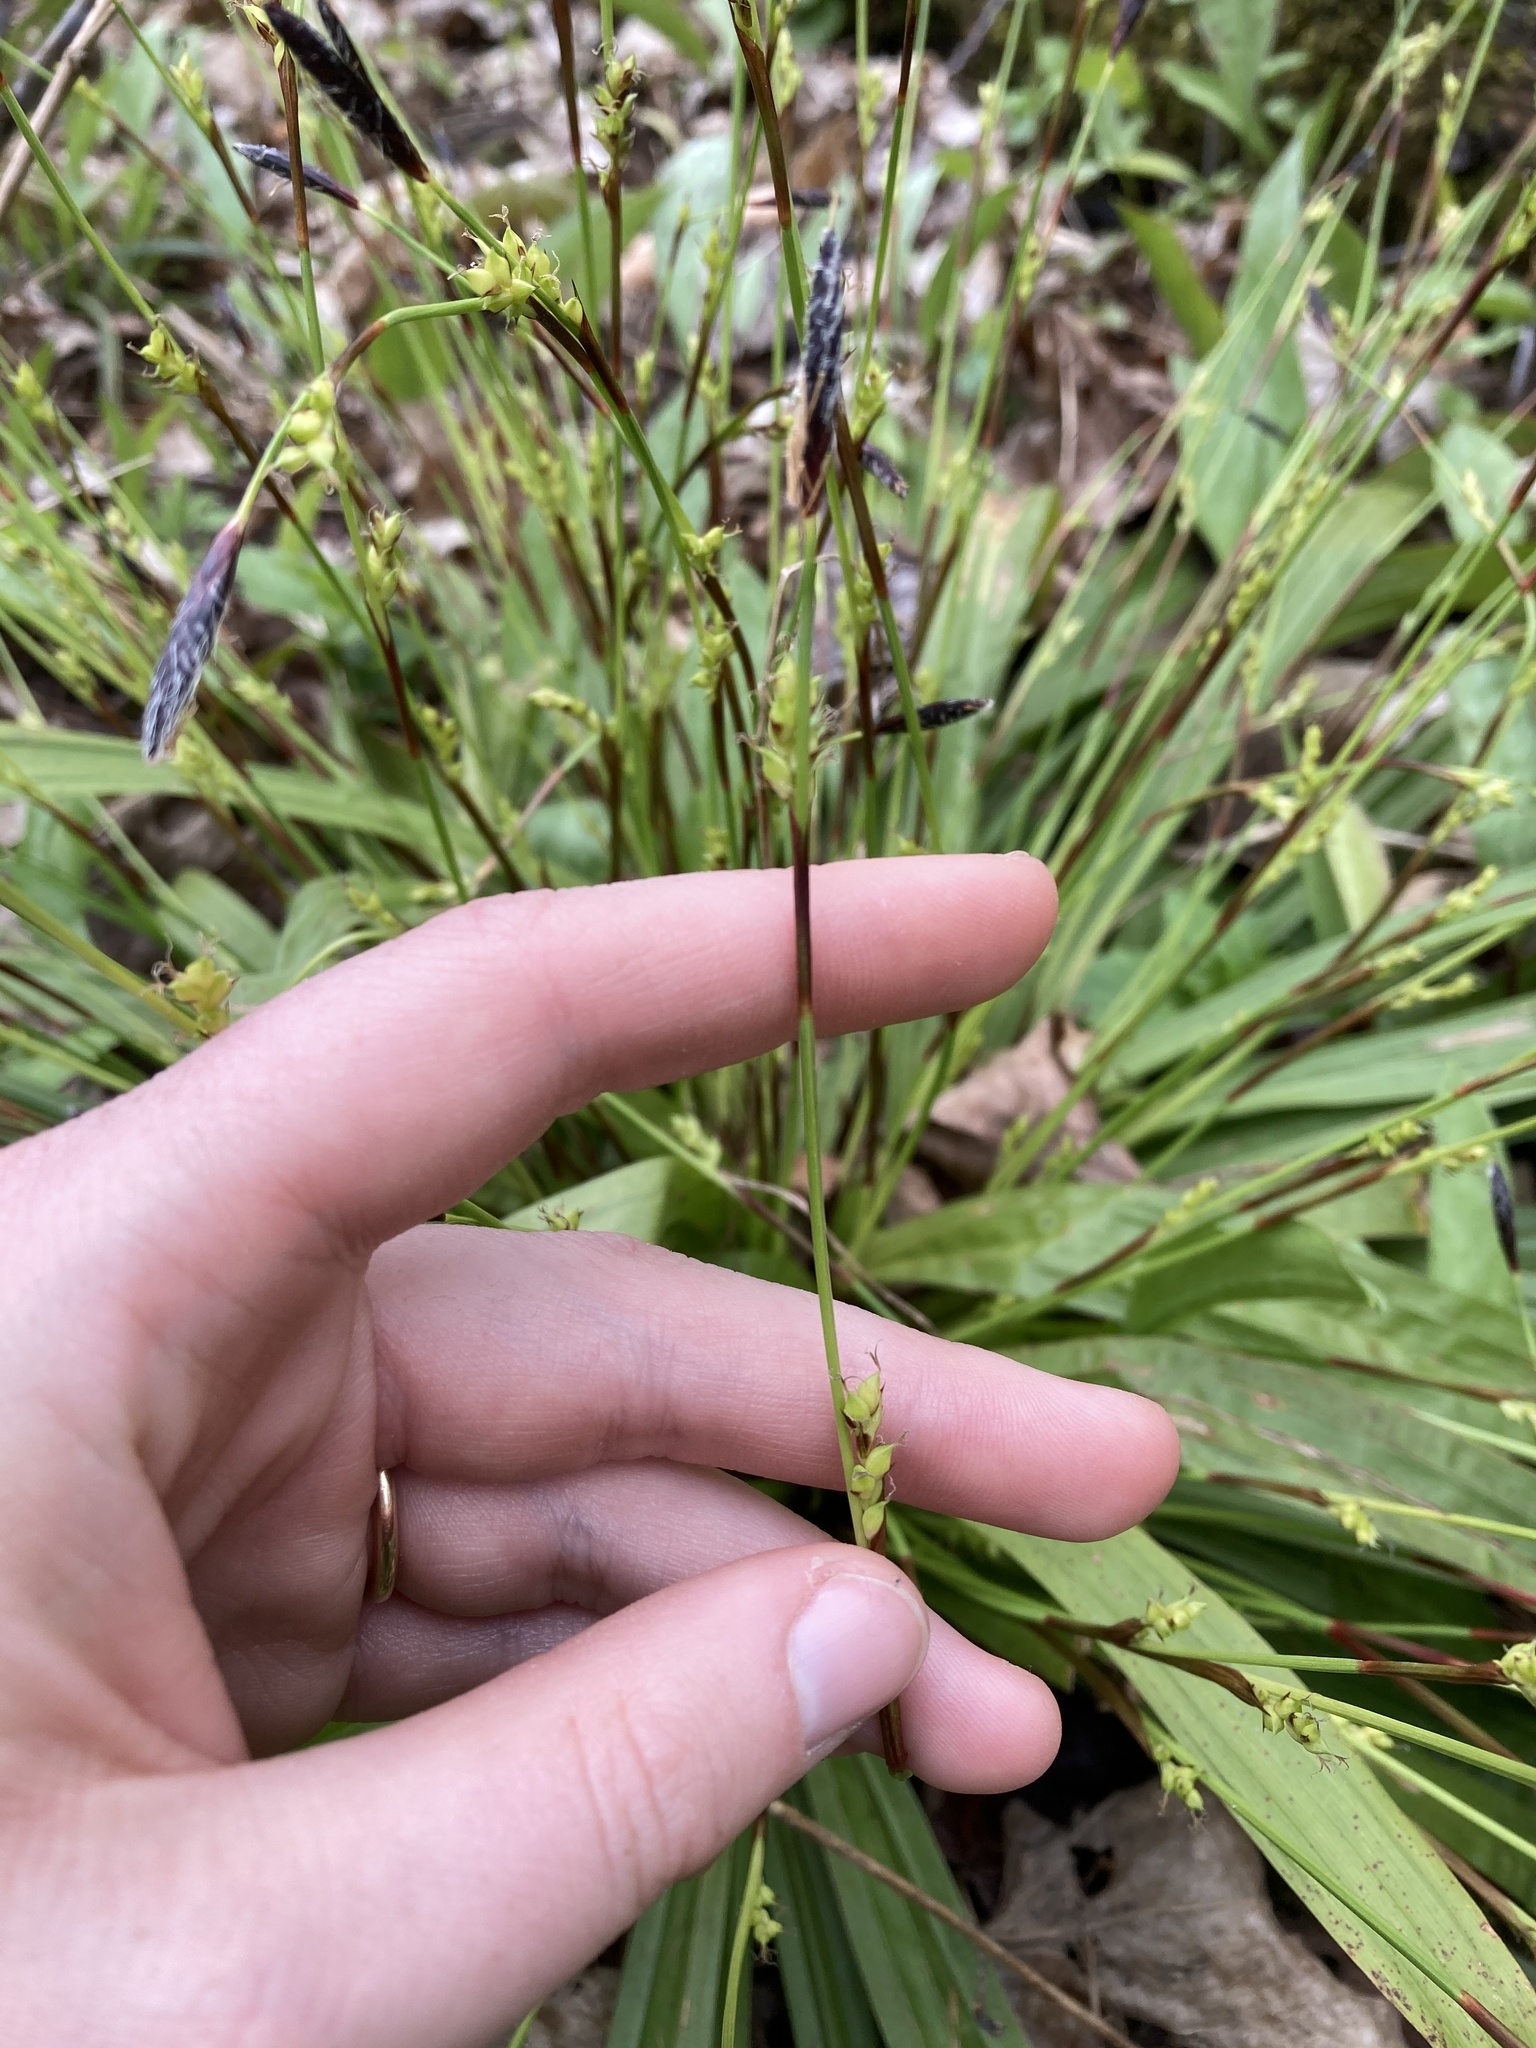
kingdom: Plantae
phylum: Tracheophyta
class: Liliopsida
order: Poales
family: Cyperaceae
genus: Carex
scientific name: Carex plantaginea
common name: Plantain-leaved sedge
